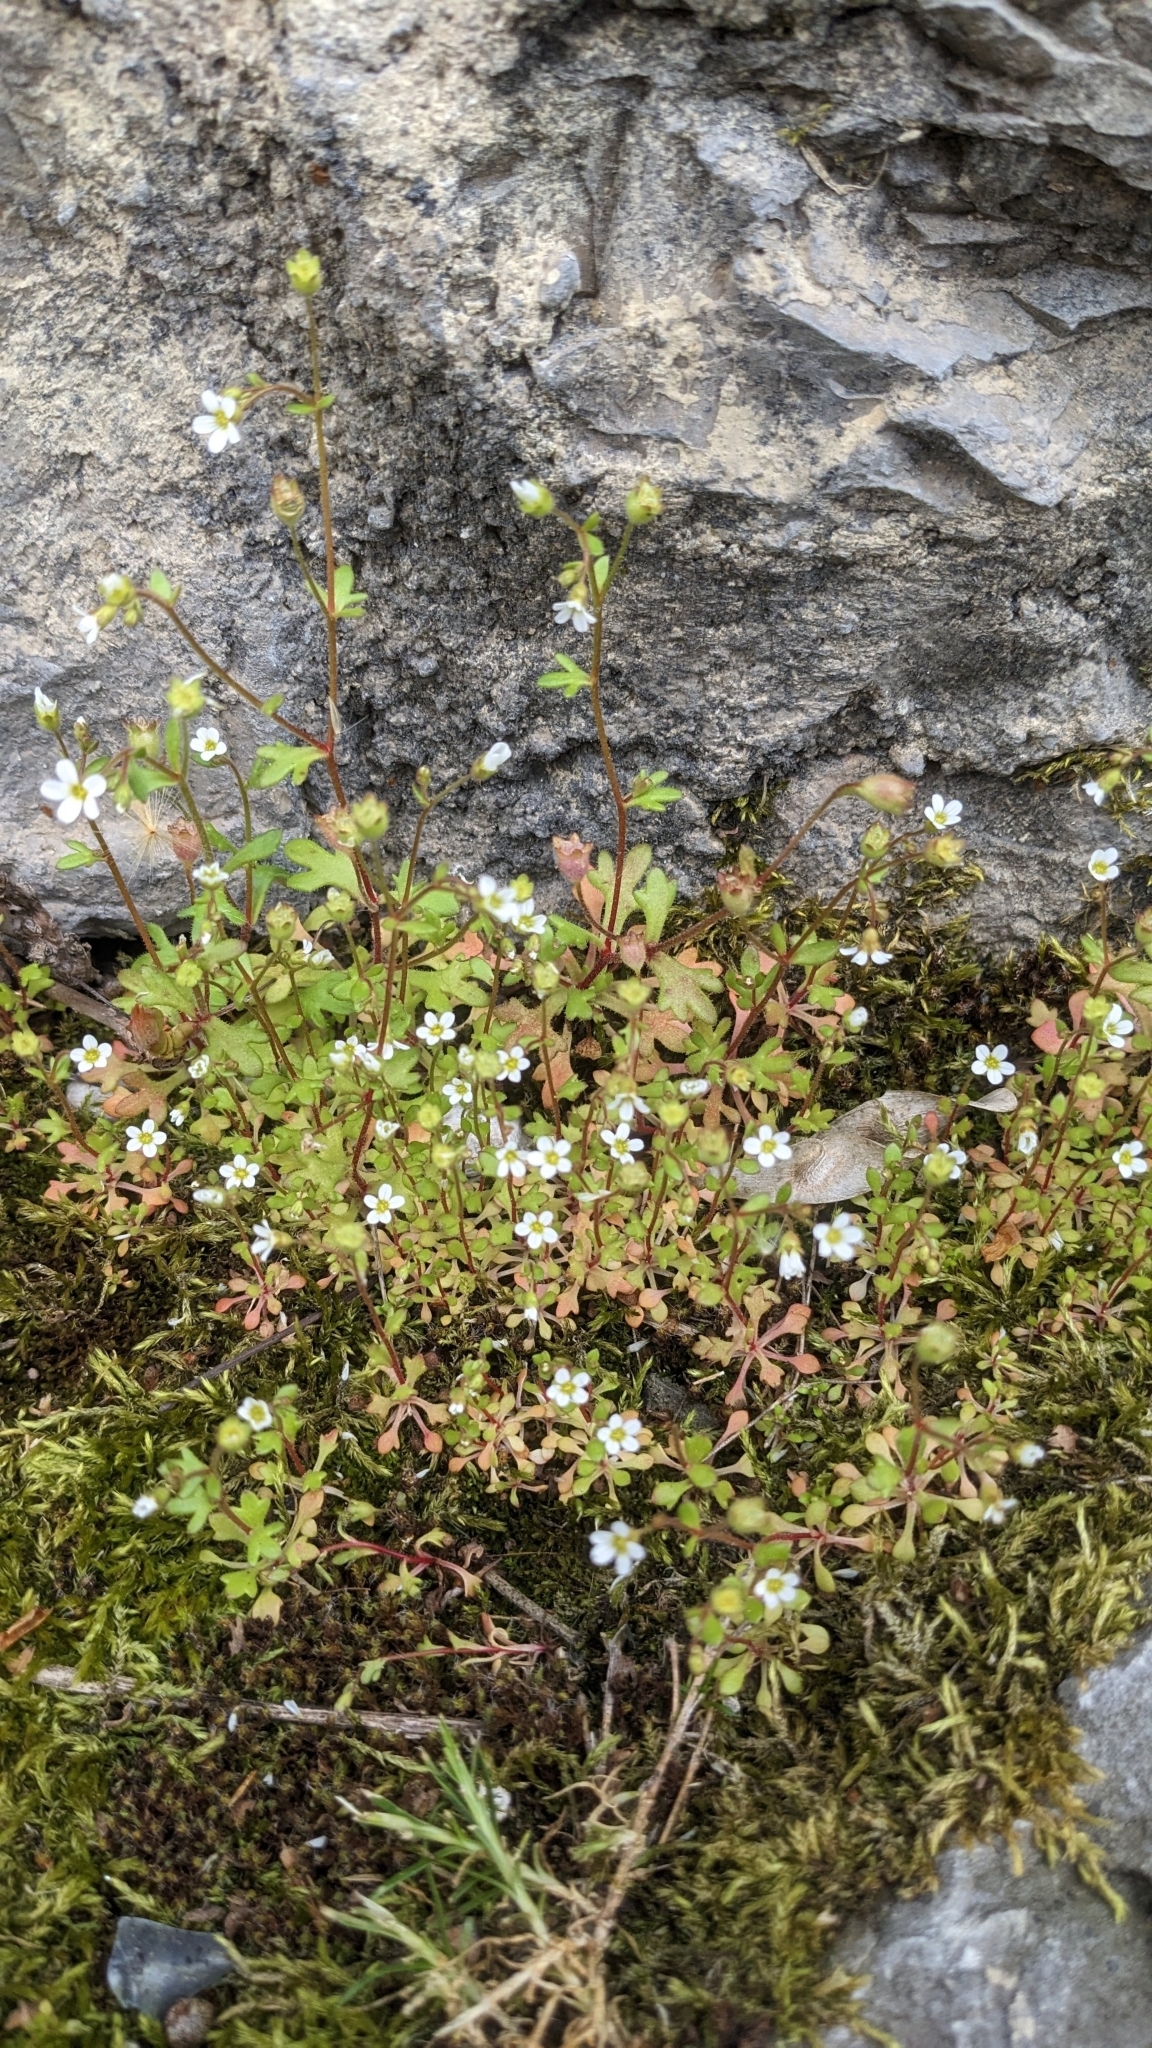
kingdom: Plantae
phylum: Tracheophyta
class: Magnoliopsida
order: Saxifragales
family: Saxifragaceae
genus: Saxifraga
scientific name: Saxifraga tridactylites
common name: Rue-leaved saxifrage
